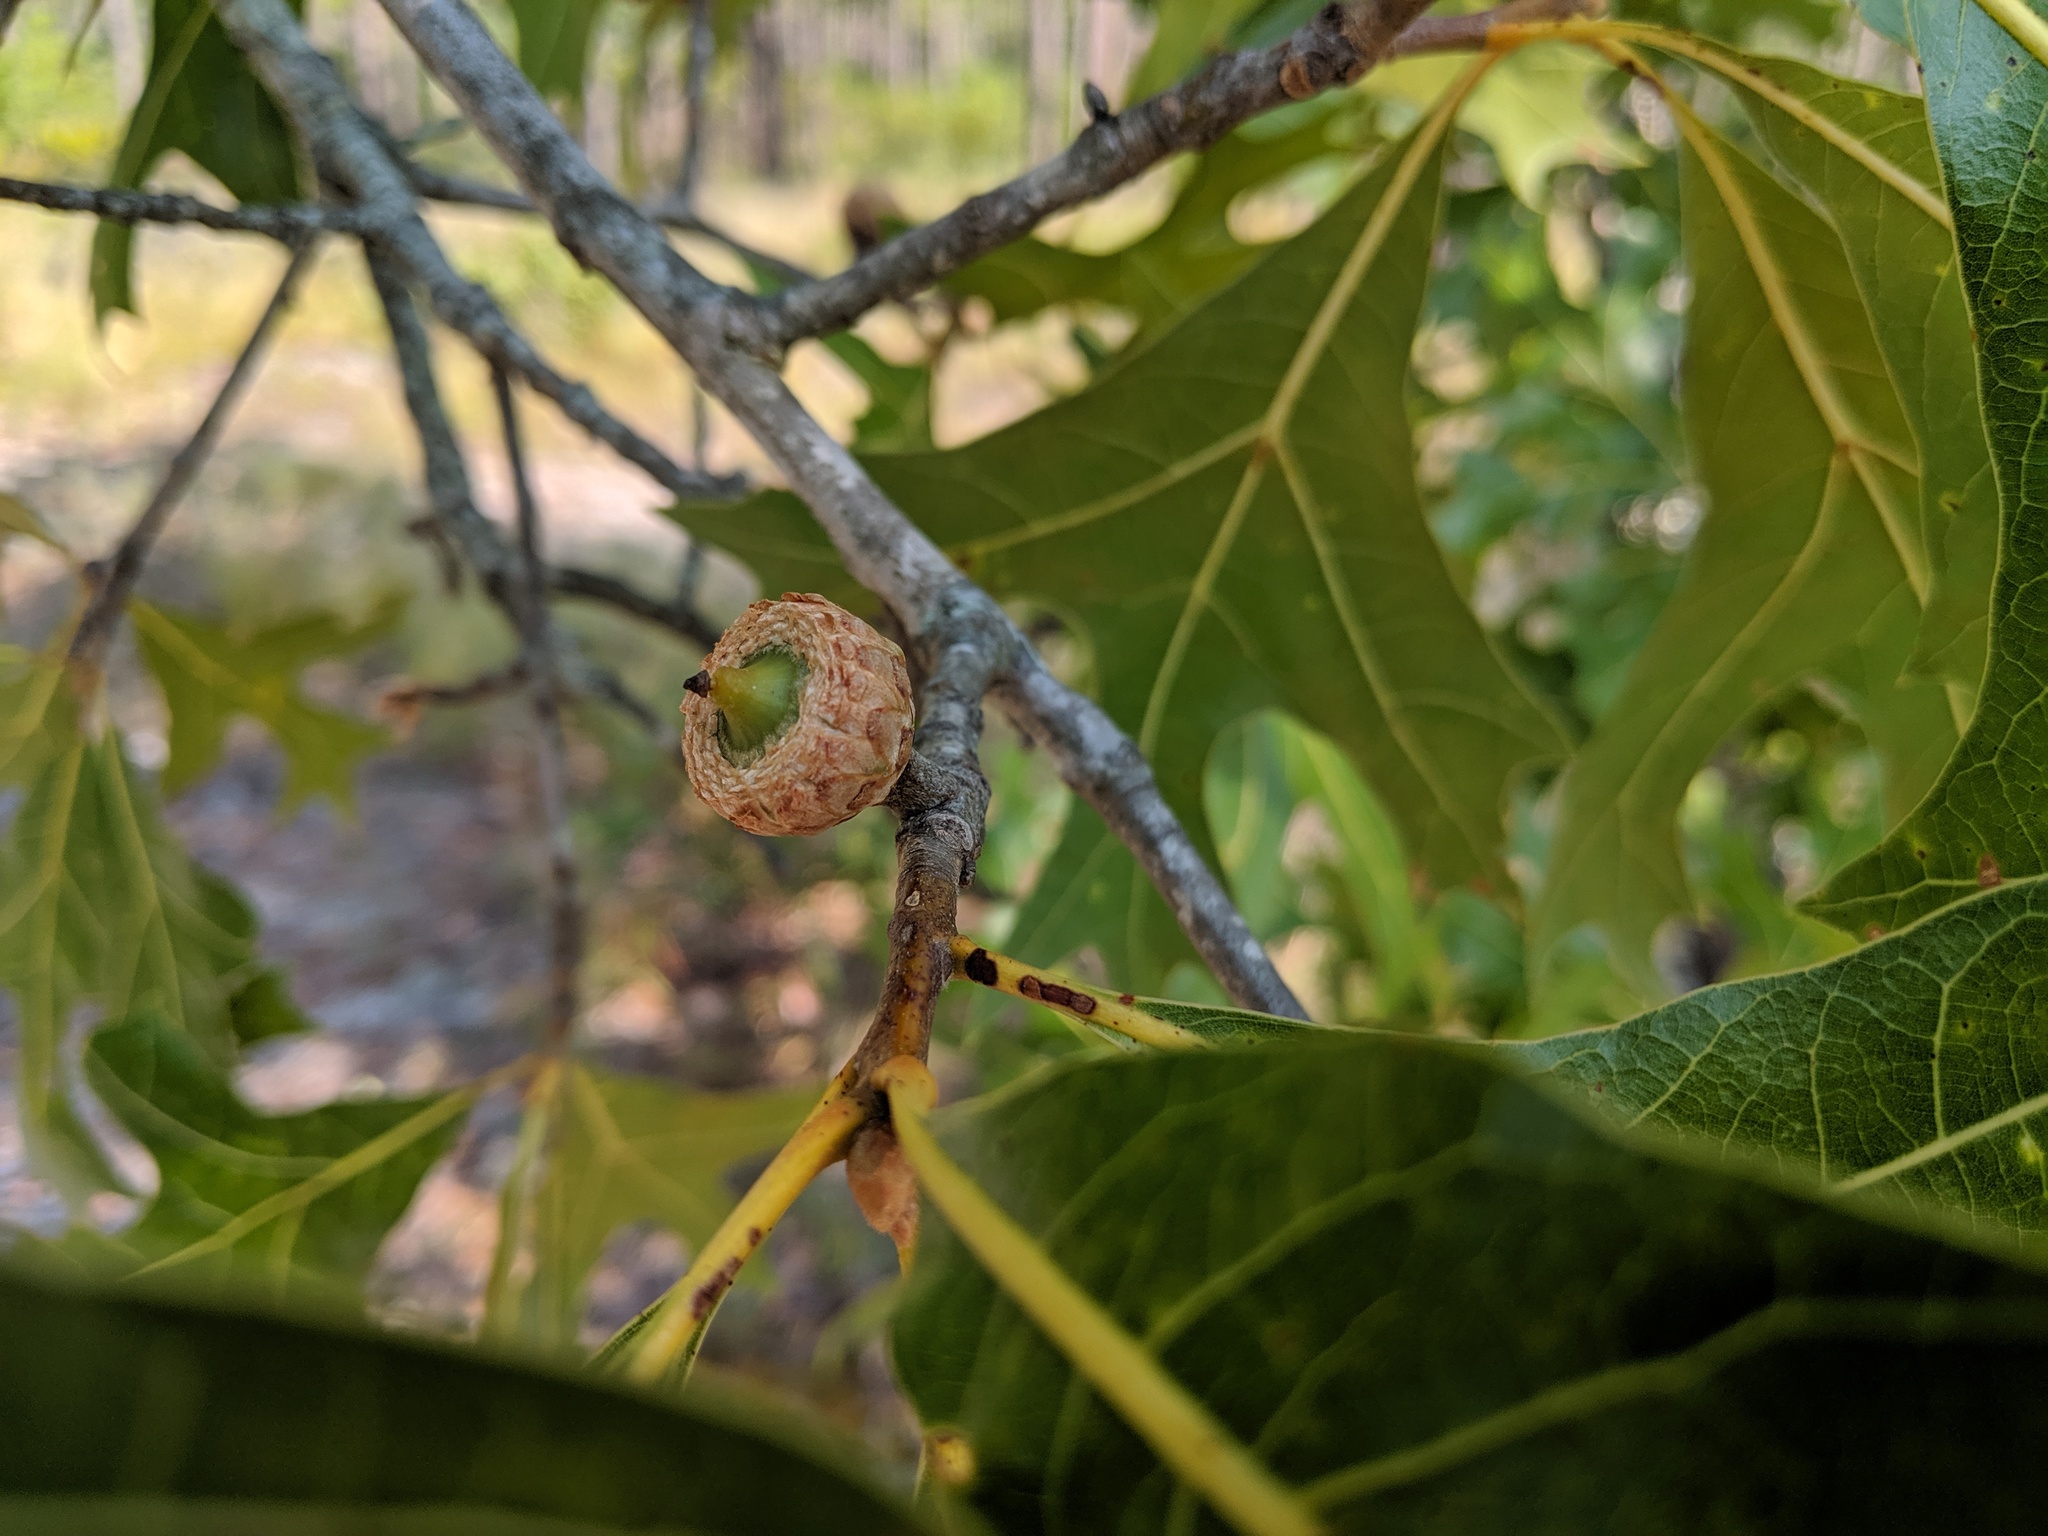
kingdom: Plantae
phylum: Tracheophyta
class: Magnoliopsida
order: Fagales
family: Fagaceae
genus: Quercus
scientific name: Quercus laevis
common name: Turkey oak
